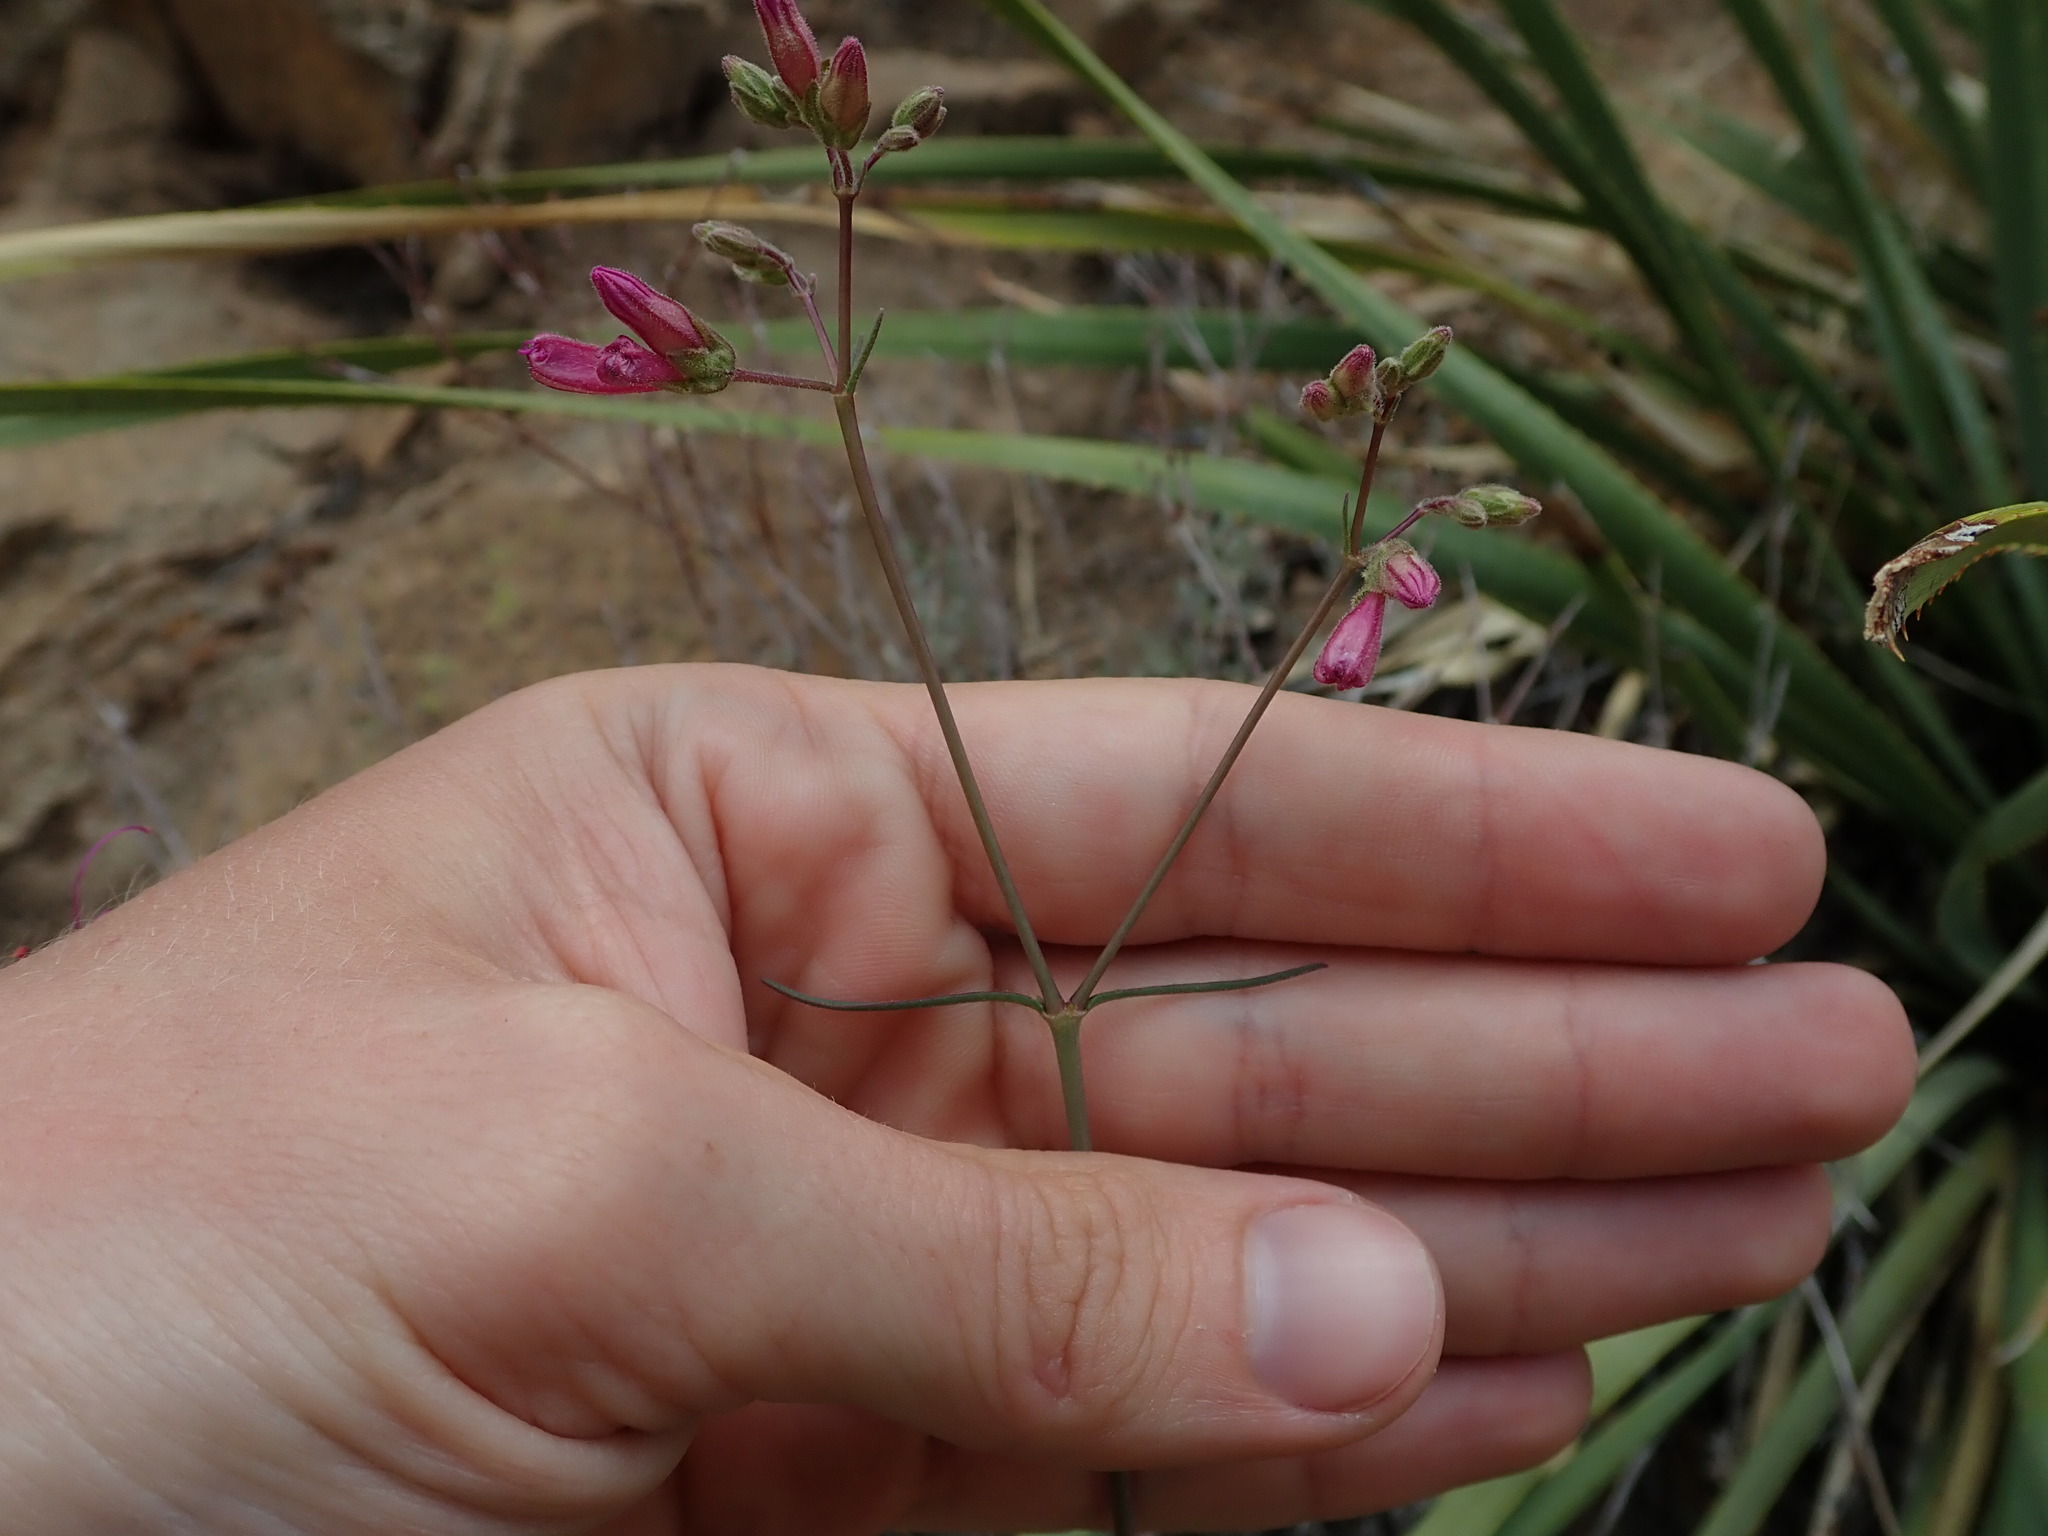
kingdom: Plantae
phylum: Tracheophyta
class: Magnoliopsida
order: Caryophyllales
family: Nyctaginaceae
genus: Mirabilis
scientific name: Mirabilis linearis
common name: Linear-leaved four-o'clock
